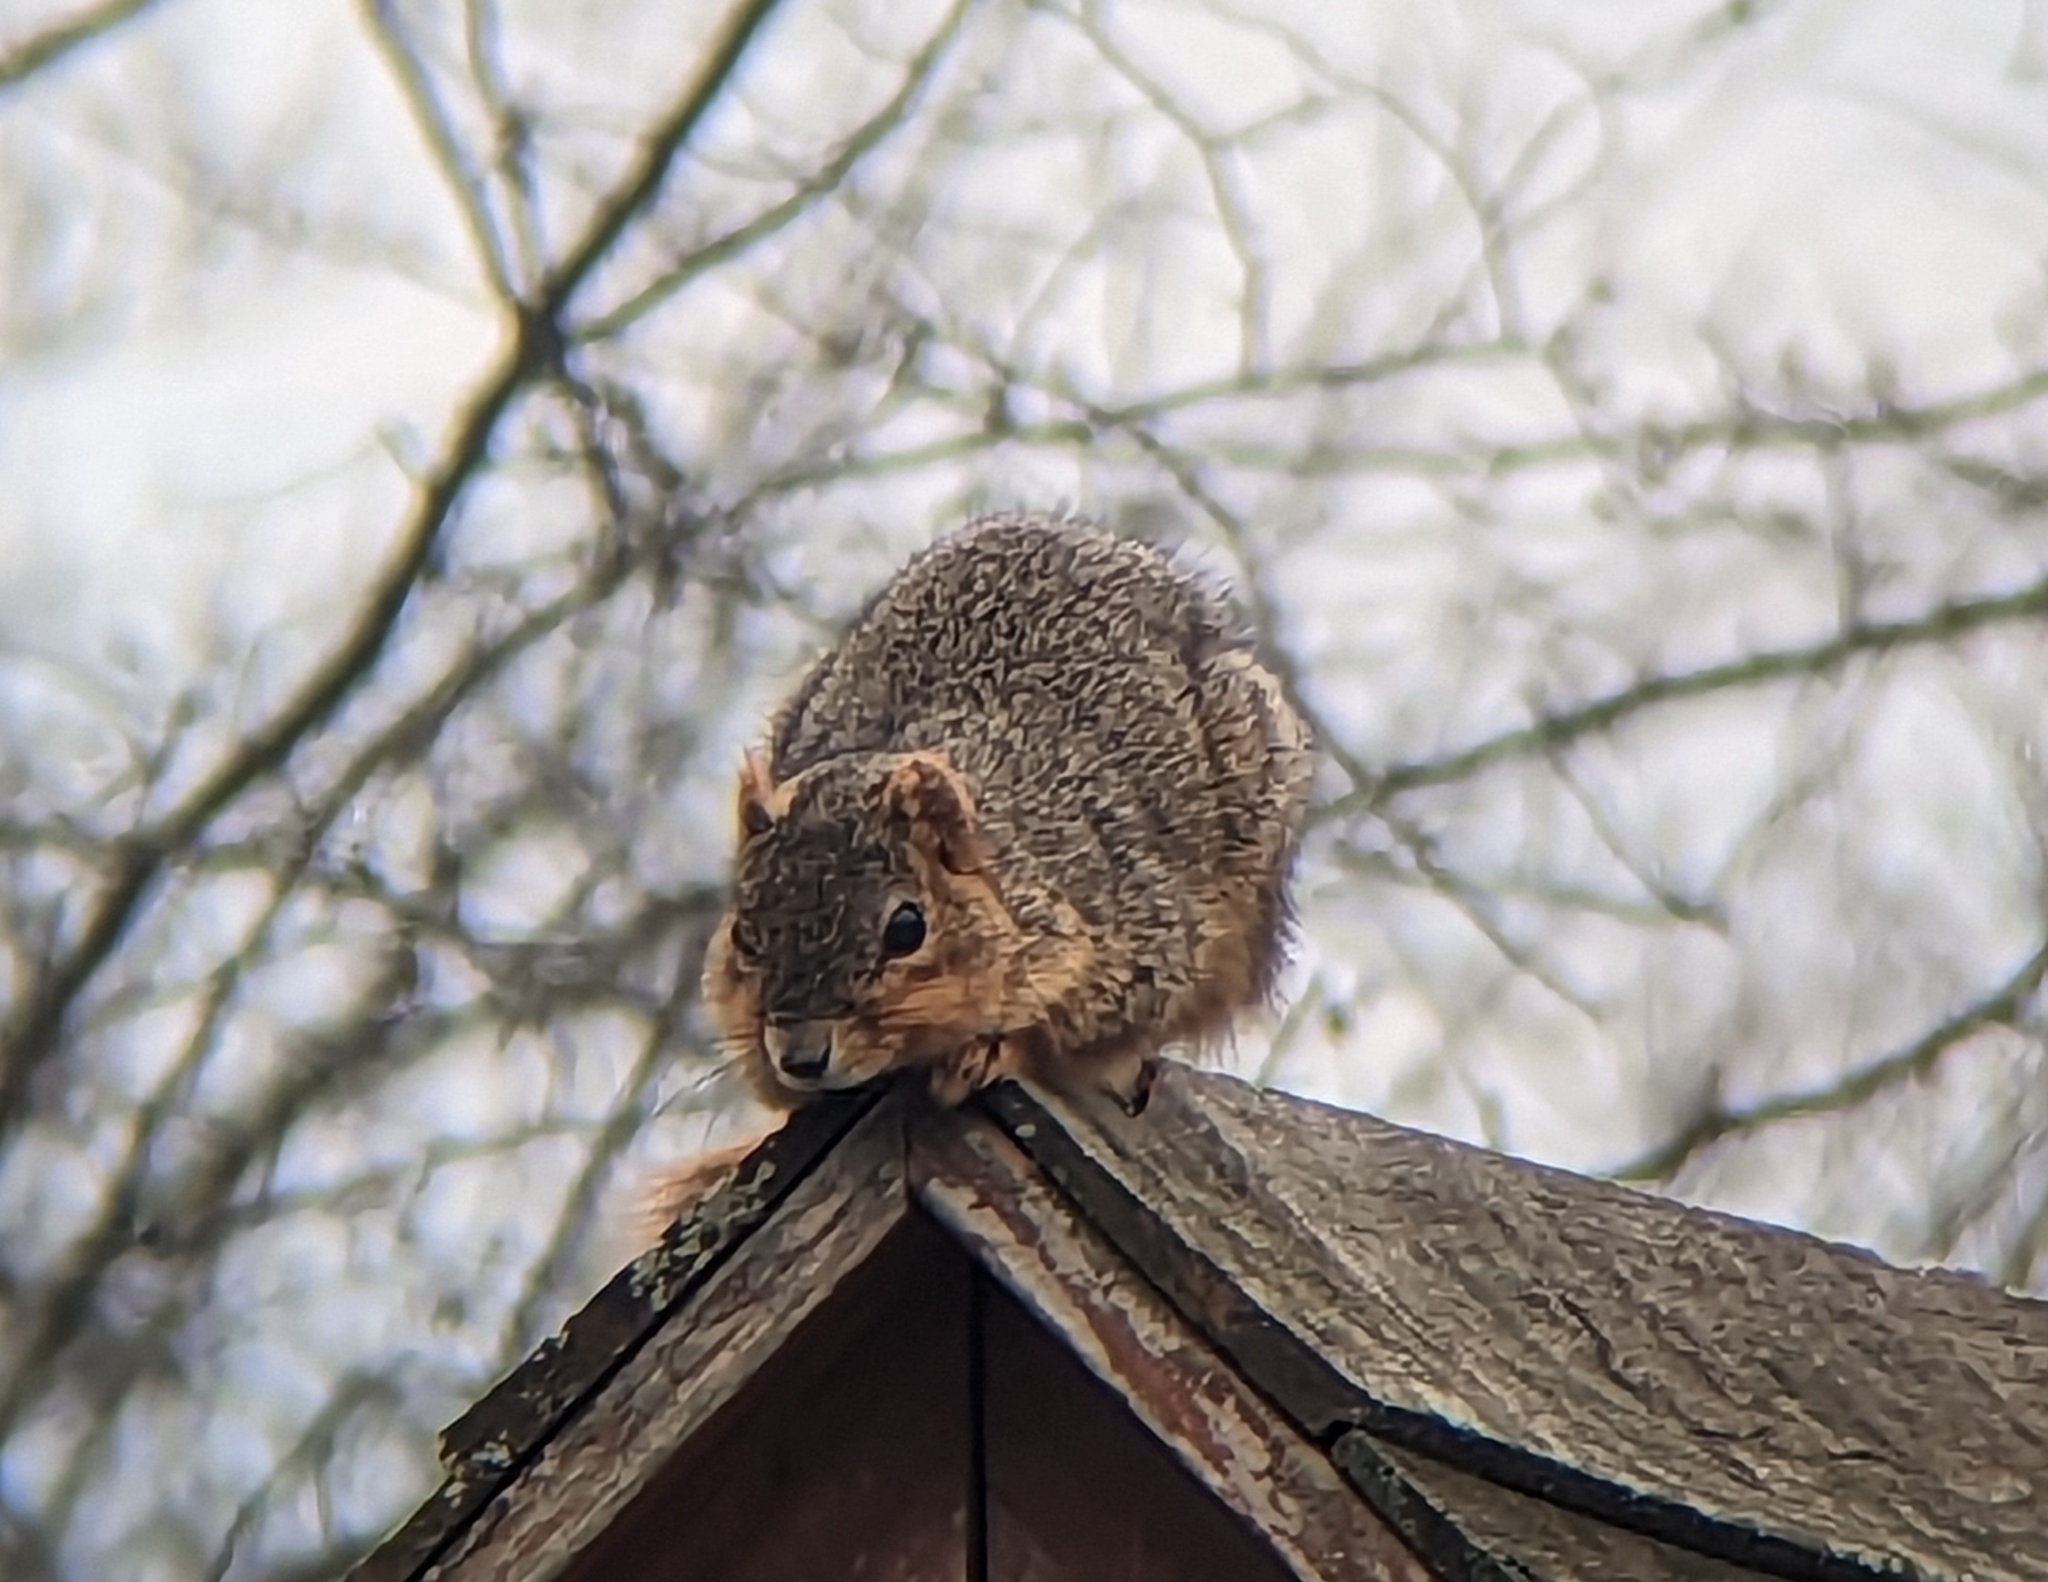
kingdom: Animalia
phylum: Chordata
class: Mammalia
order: Rodentia
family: Sciuridae
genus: Sciurus
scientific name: Sciurus niger
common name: Fox squirrel
